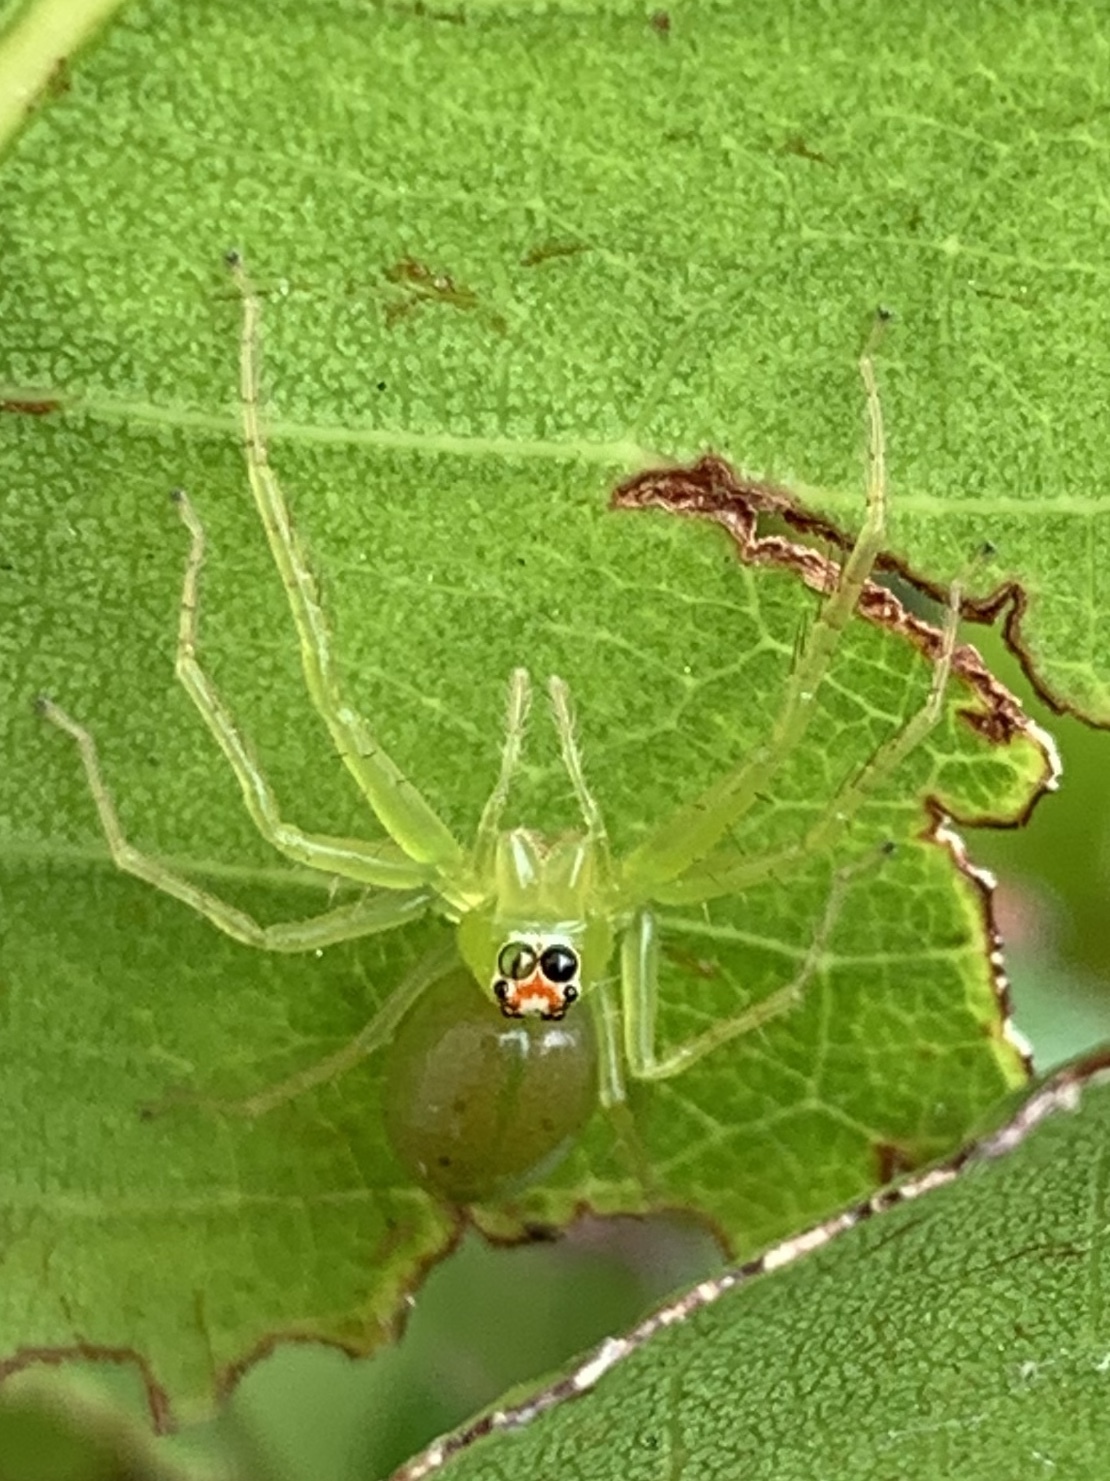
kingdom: Animalia
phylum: Arthropoda
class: Arachnida
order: Araneae
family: Salticidae
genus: Lyssomanes
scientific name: Lyssomanes viridis
